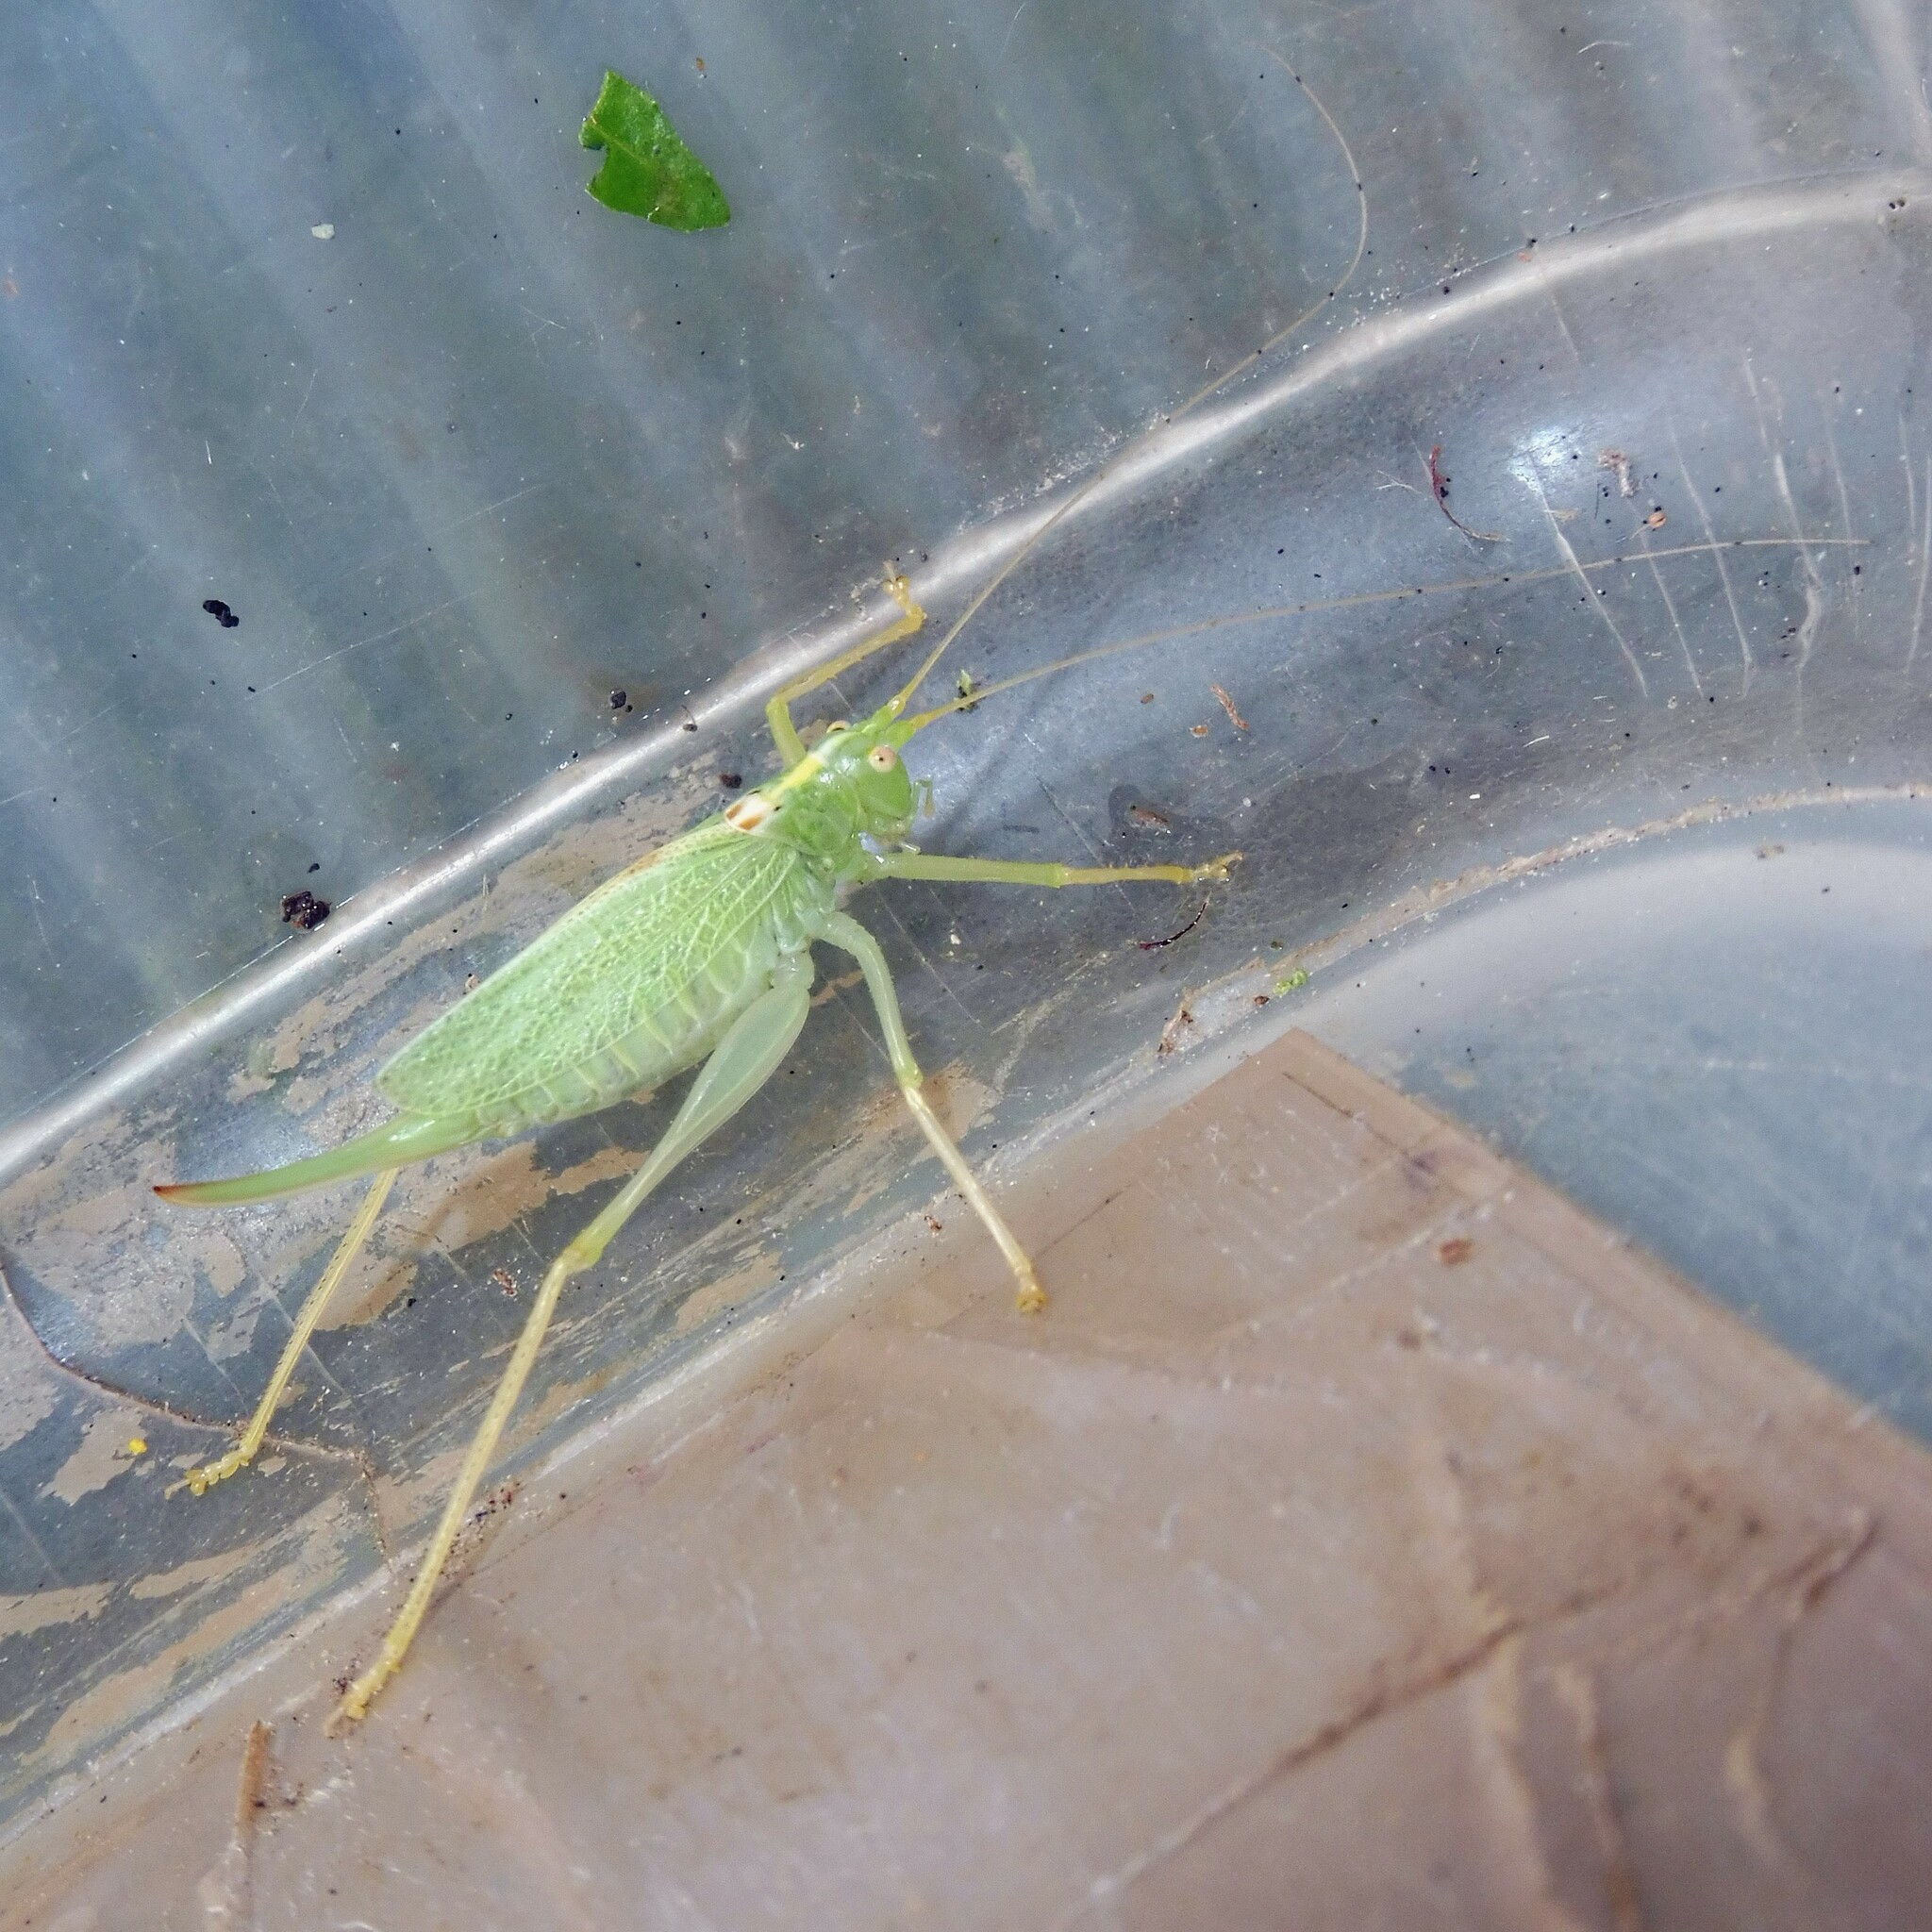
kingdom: Animalia
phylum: Arthropoda
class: Insecta
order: Orthoptera
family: Tettigoniidae
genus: Meconema
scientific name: Meconema thalassinum
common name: Oak bush-cricket
